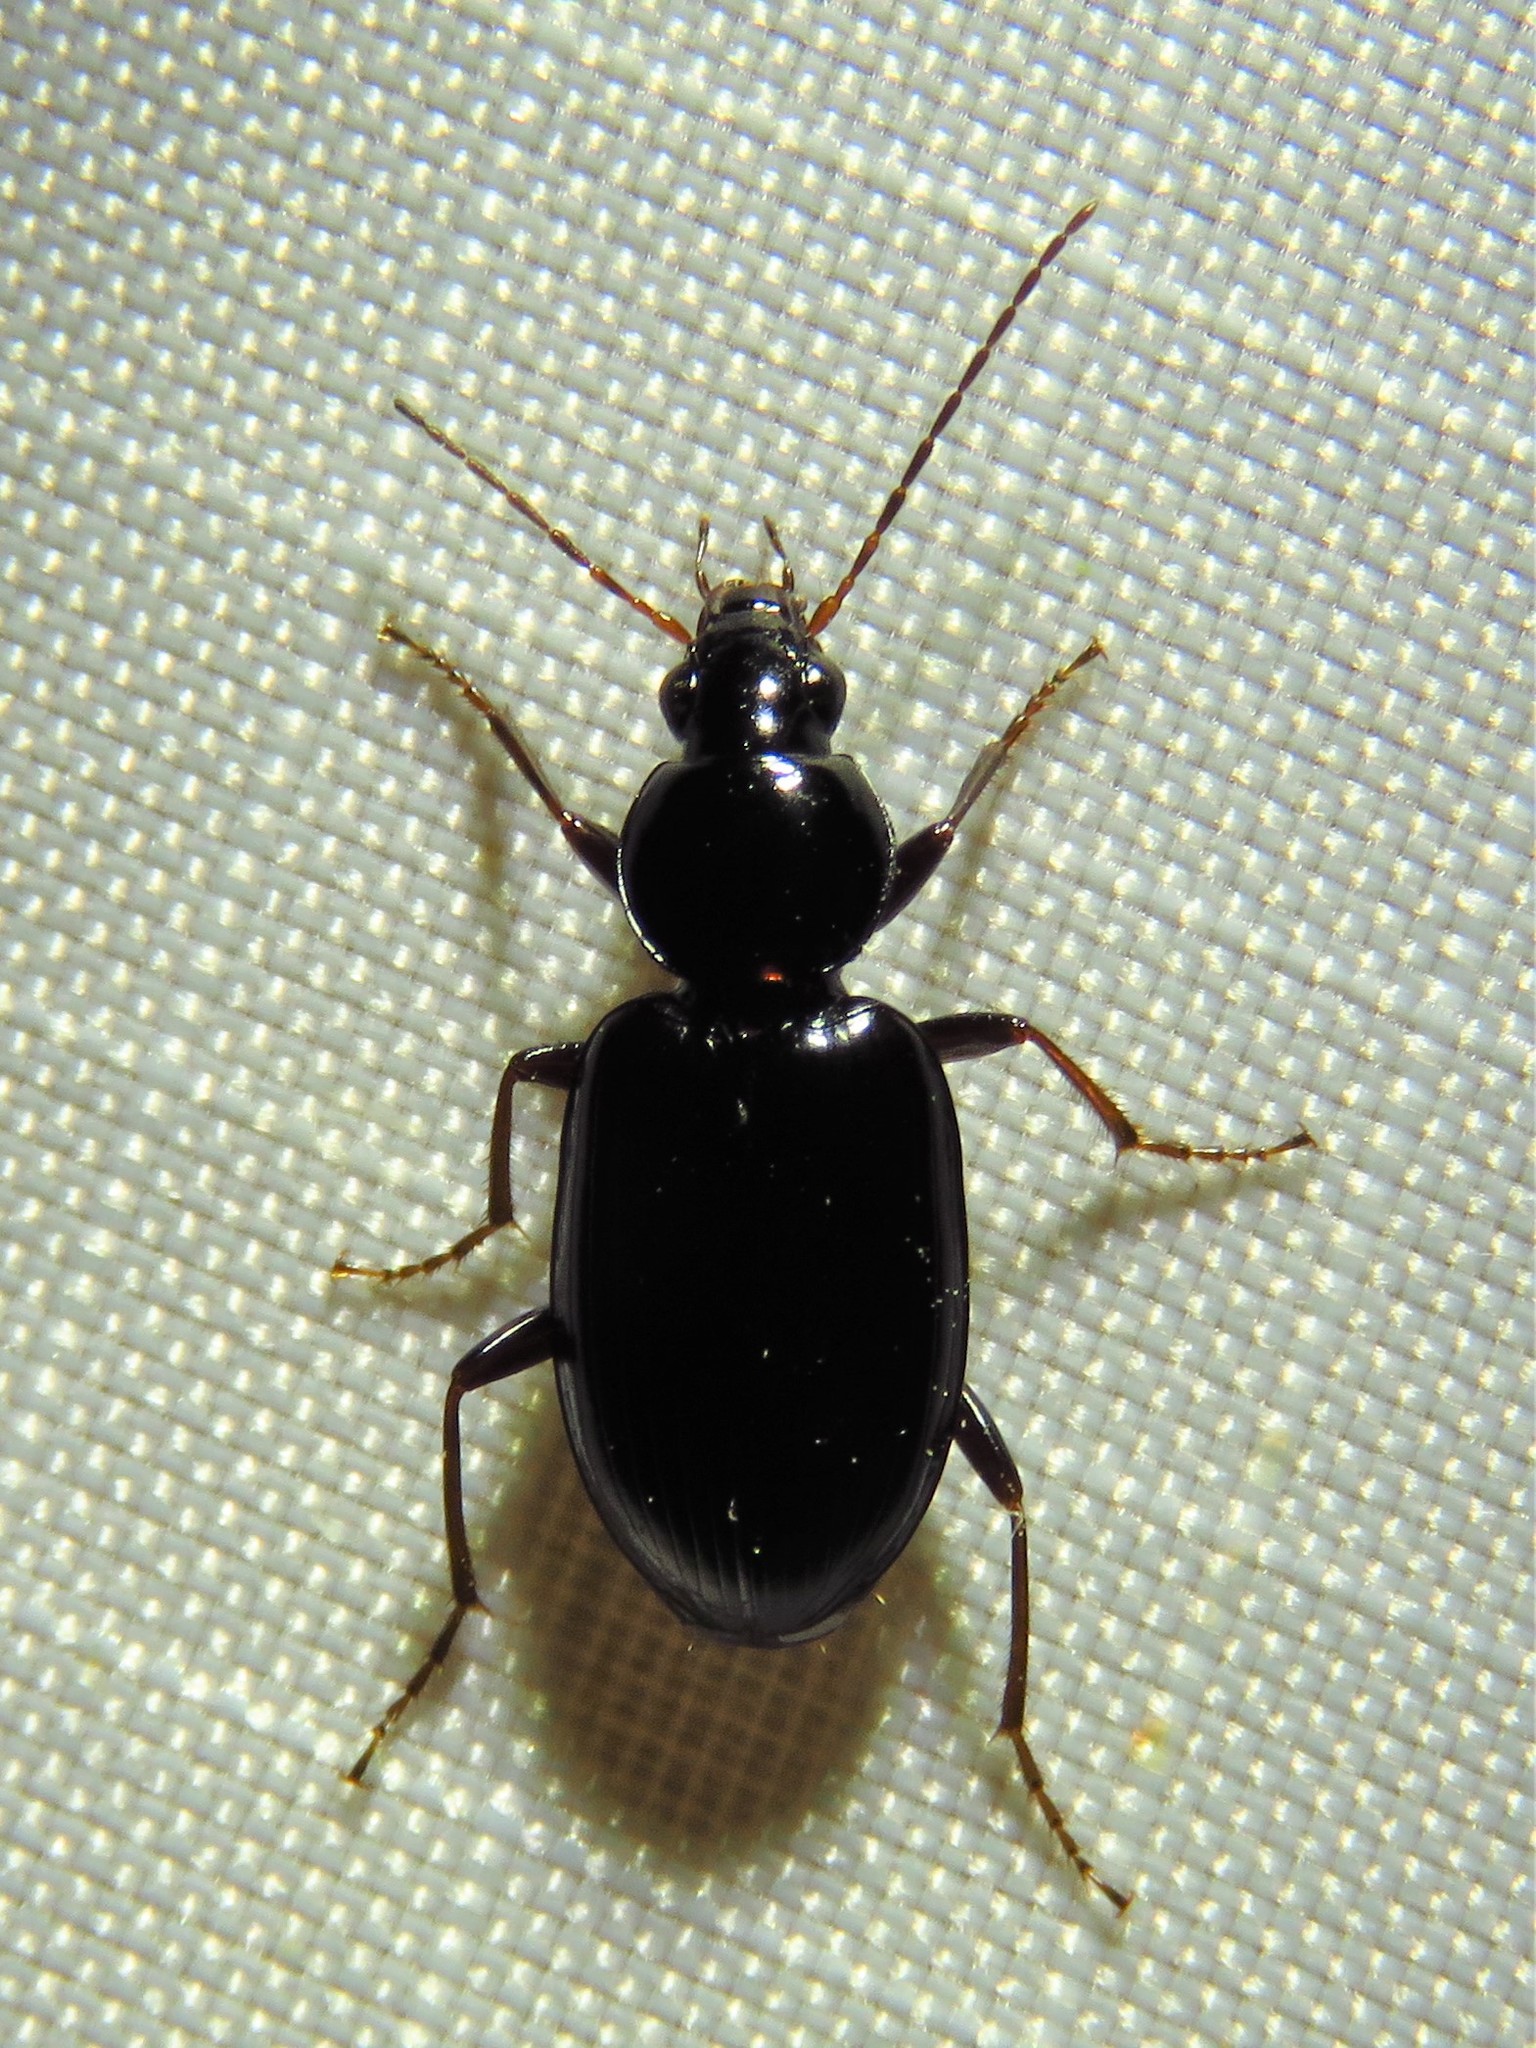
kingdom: Animalia
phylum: Arthropoda
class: Insecta
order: Coleoptera
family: Carabidae
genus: Agonum
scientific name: Agonum punctiforme
